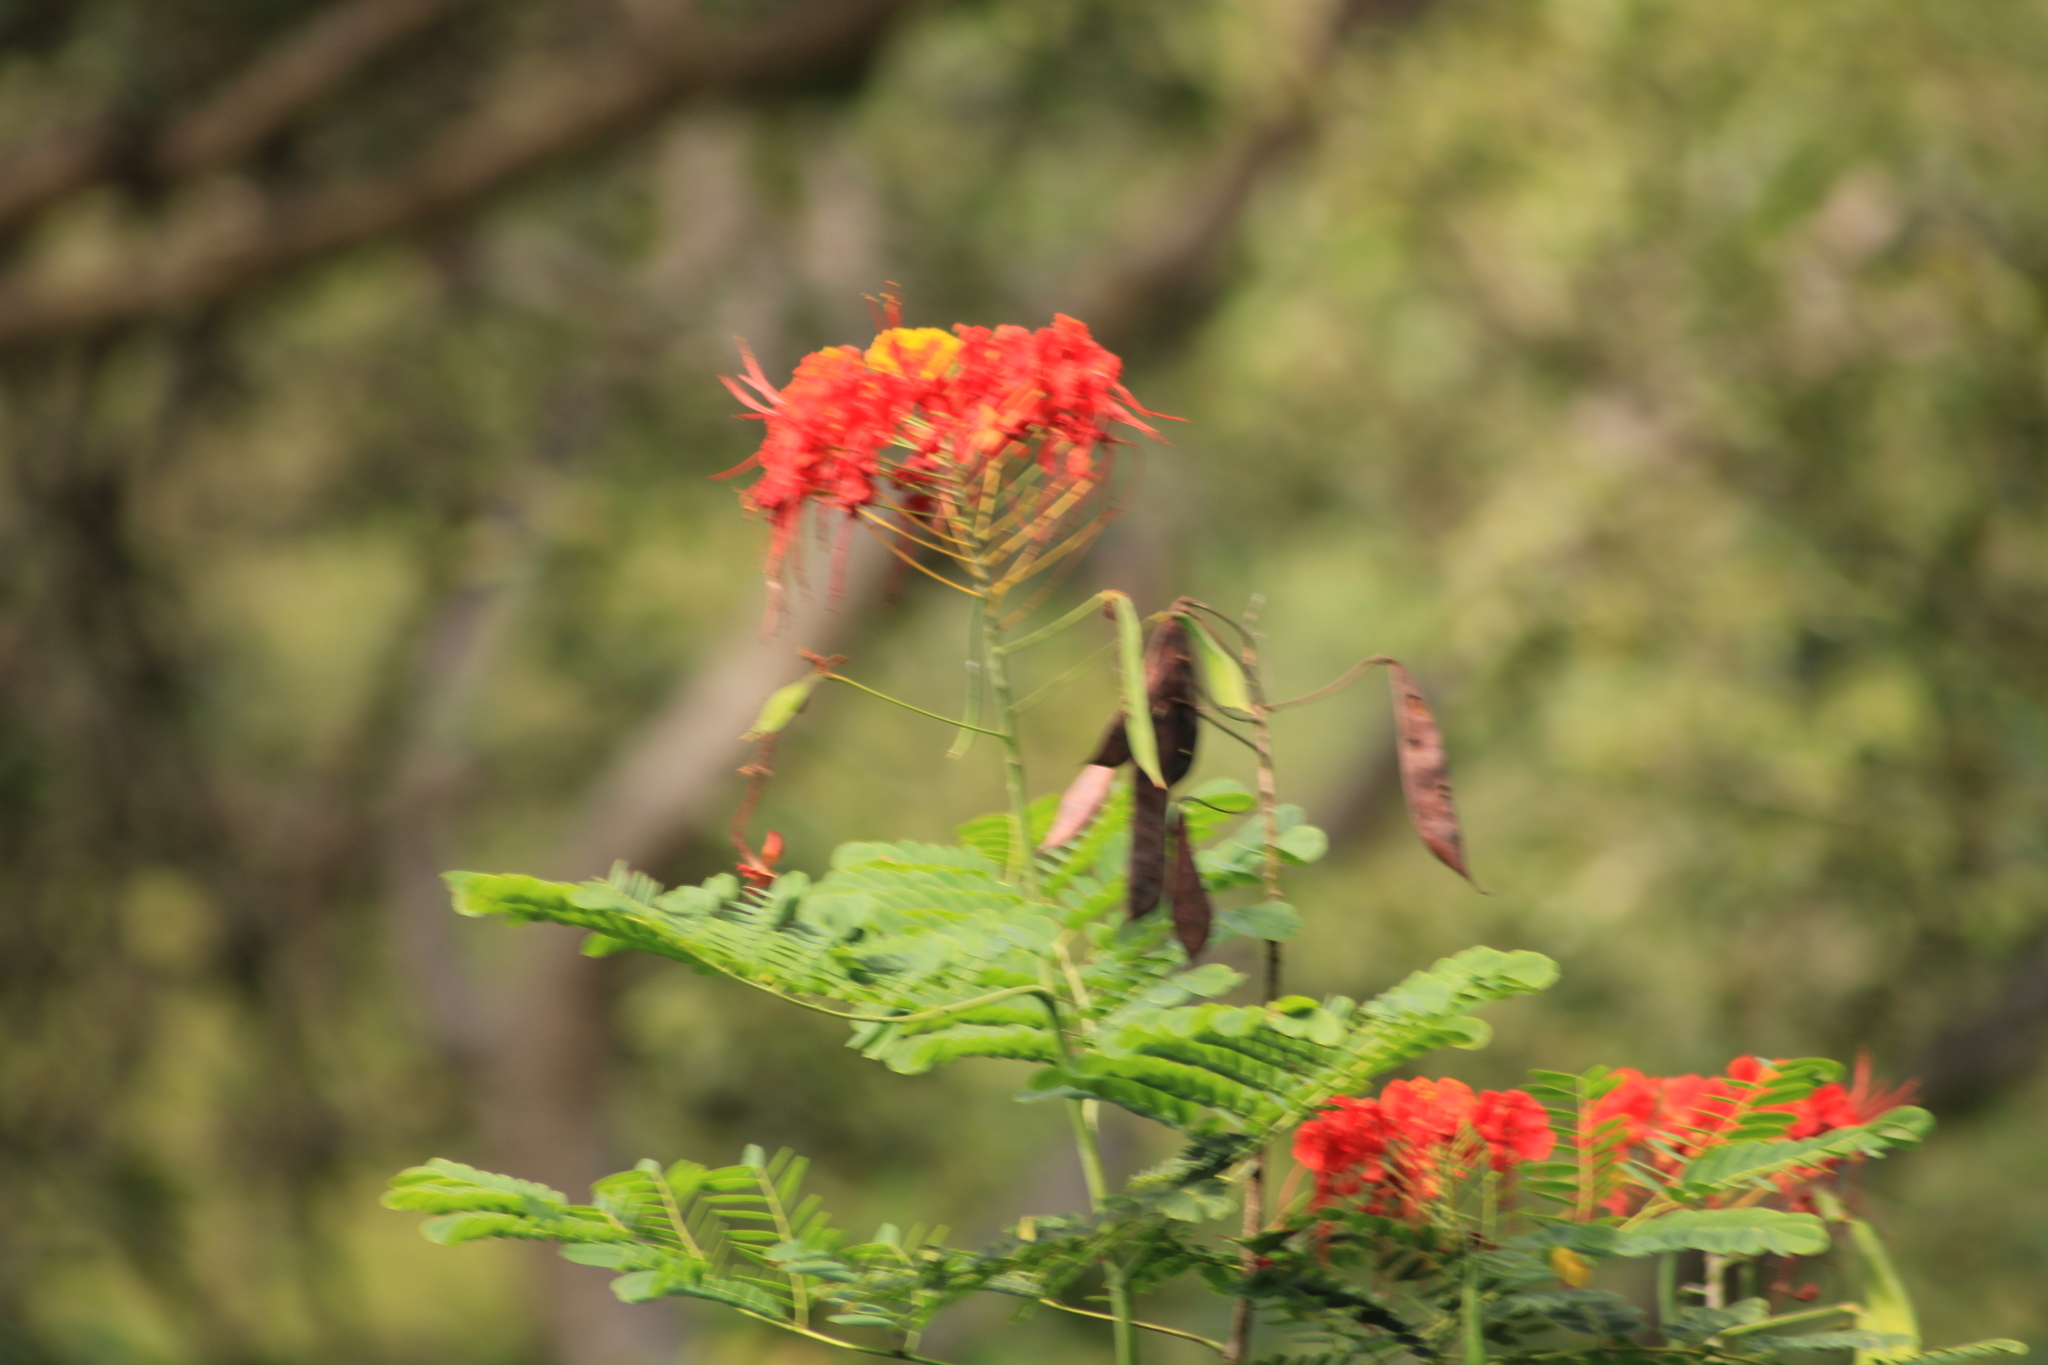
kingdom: Plantae
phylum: Tracheophyta
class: Magnoliopsida
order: Fabales
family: Fabaceae
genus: Caesalpinia
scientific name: Caesalpinia pulcherrima
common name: Pride-of-barbados
